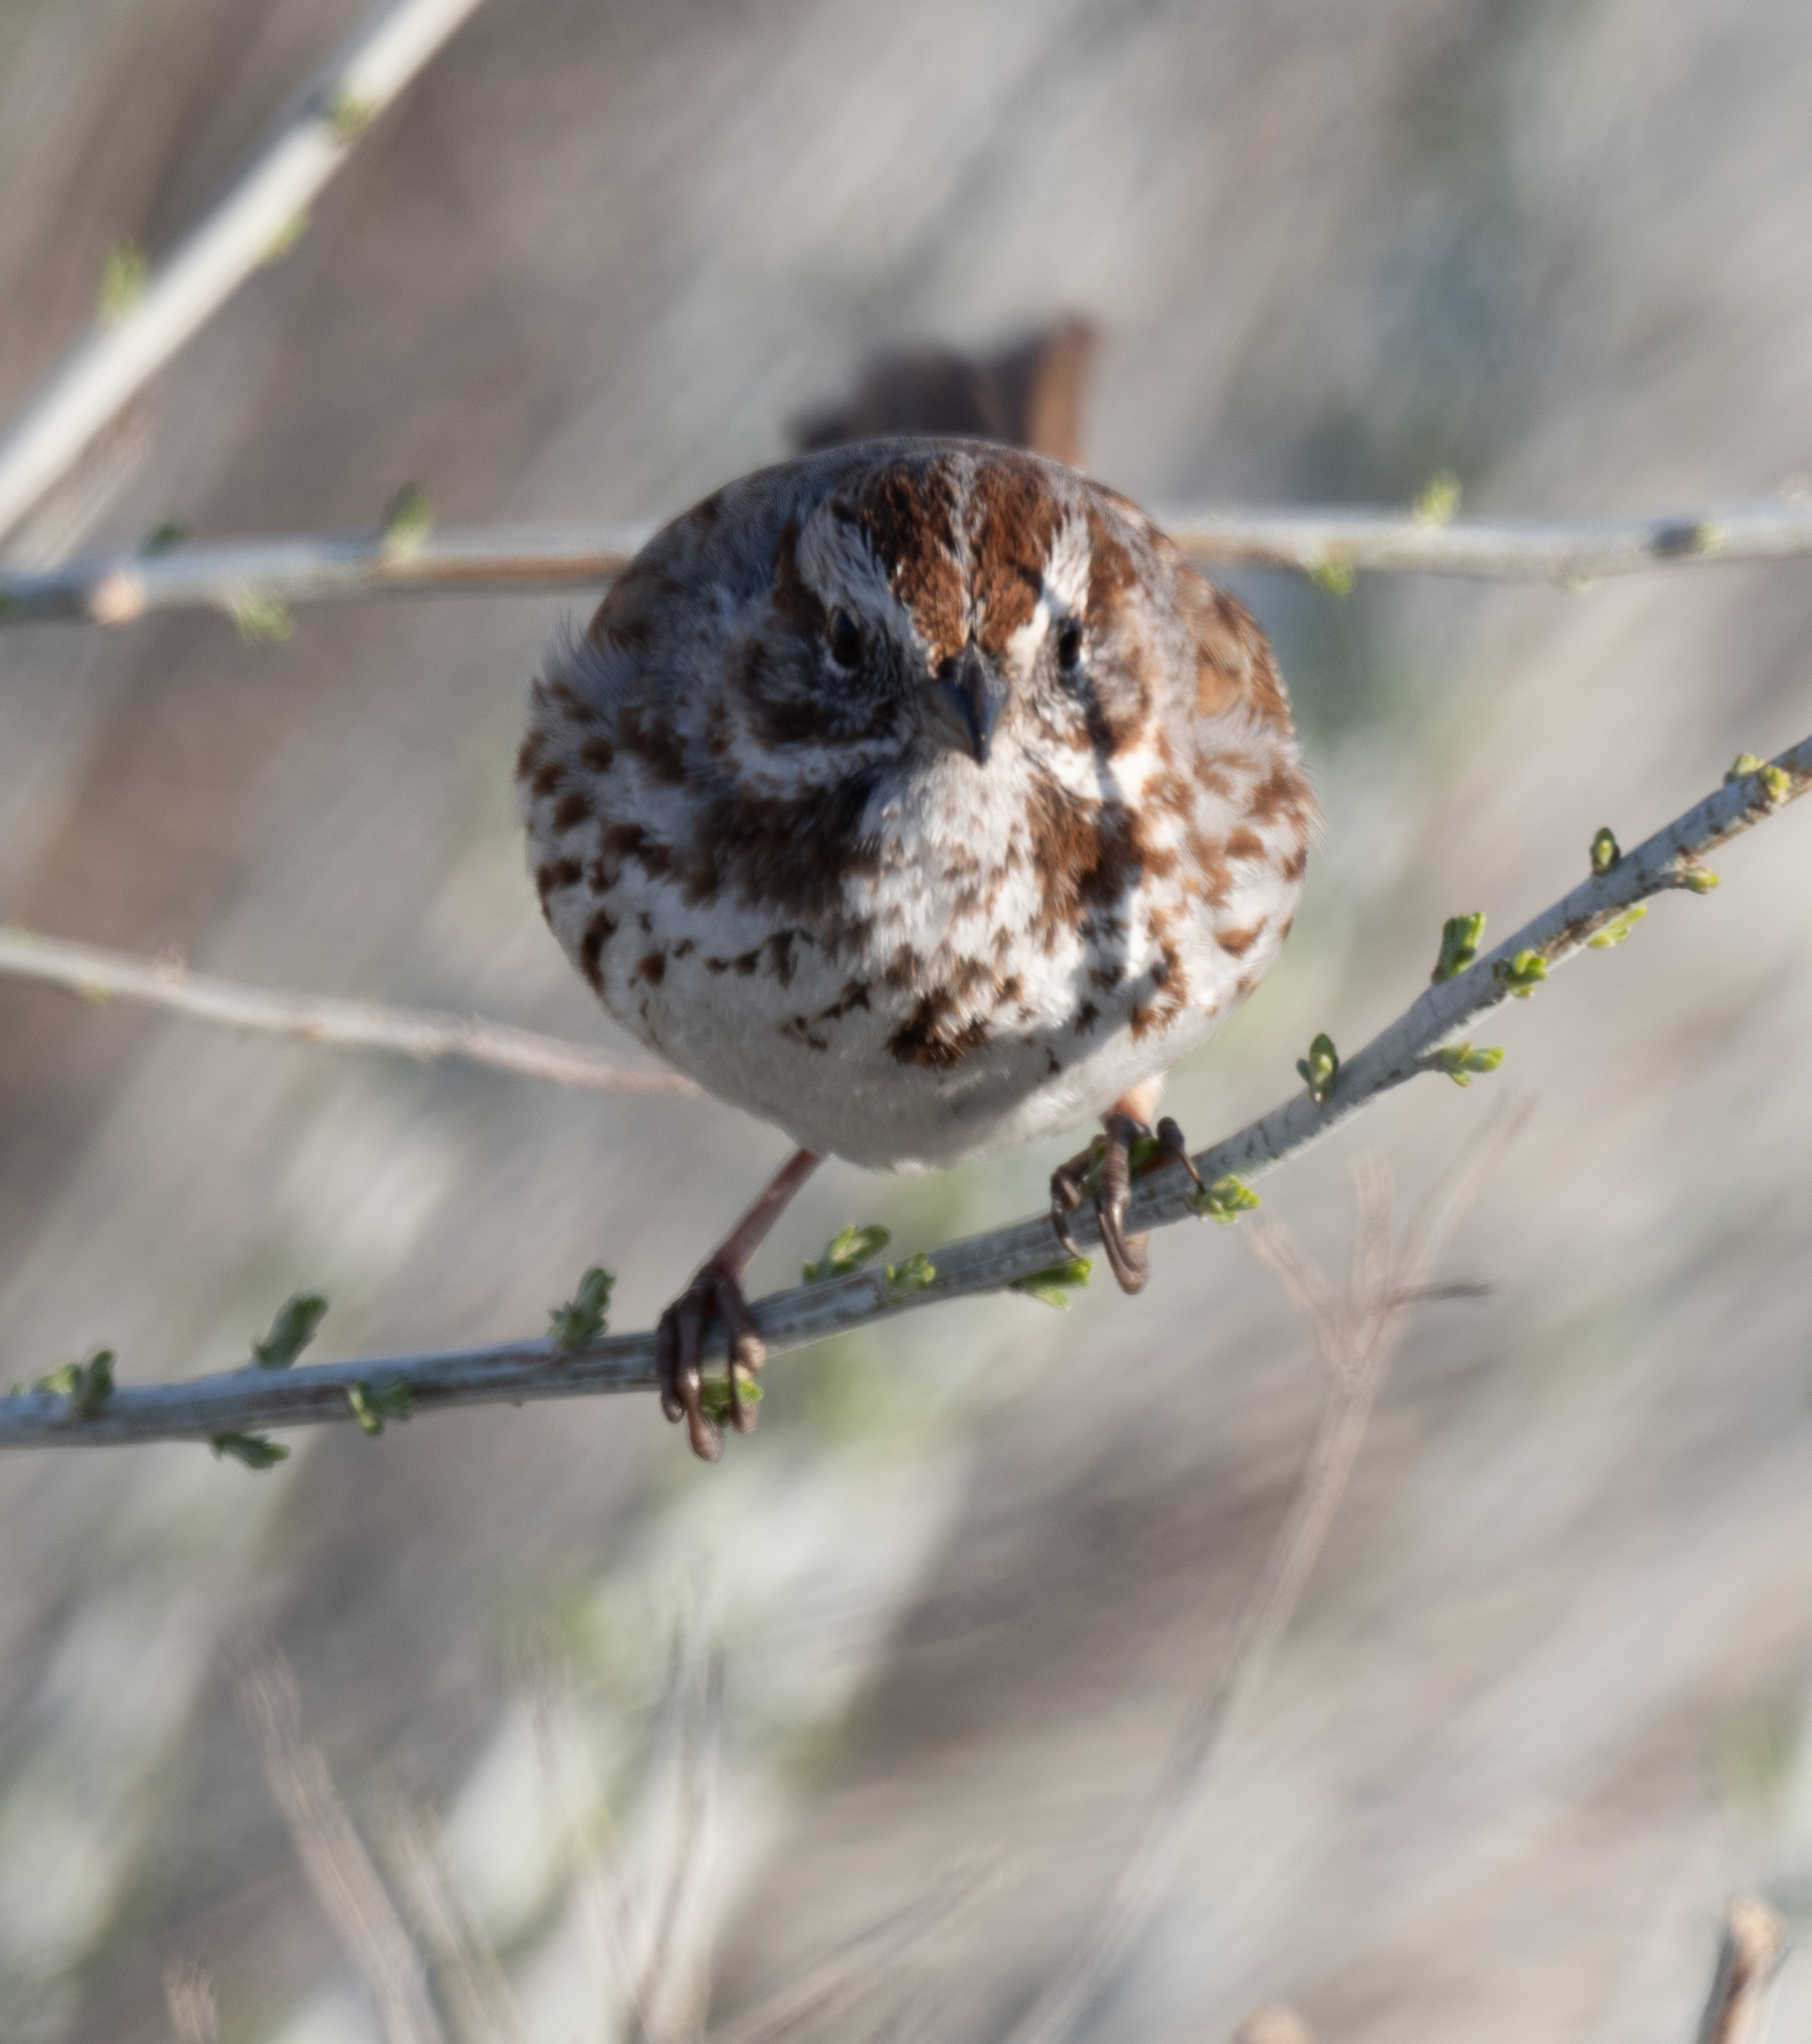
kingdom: Animalia
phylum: Chordata
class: Aves
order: Passeriformes
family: Passerellidae
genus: Melospiza
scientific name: Melospiza melodia
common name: Song sparrow
